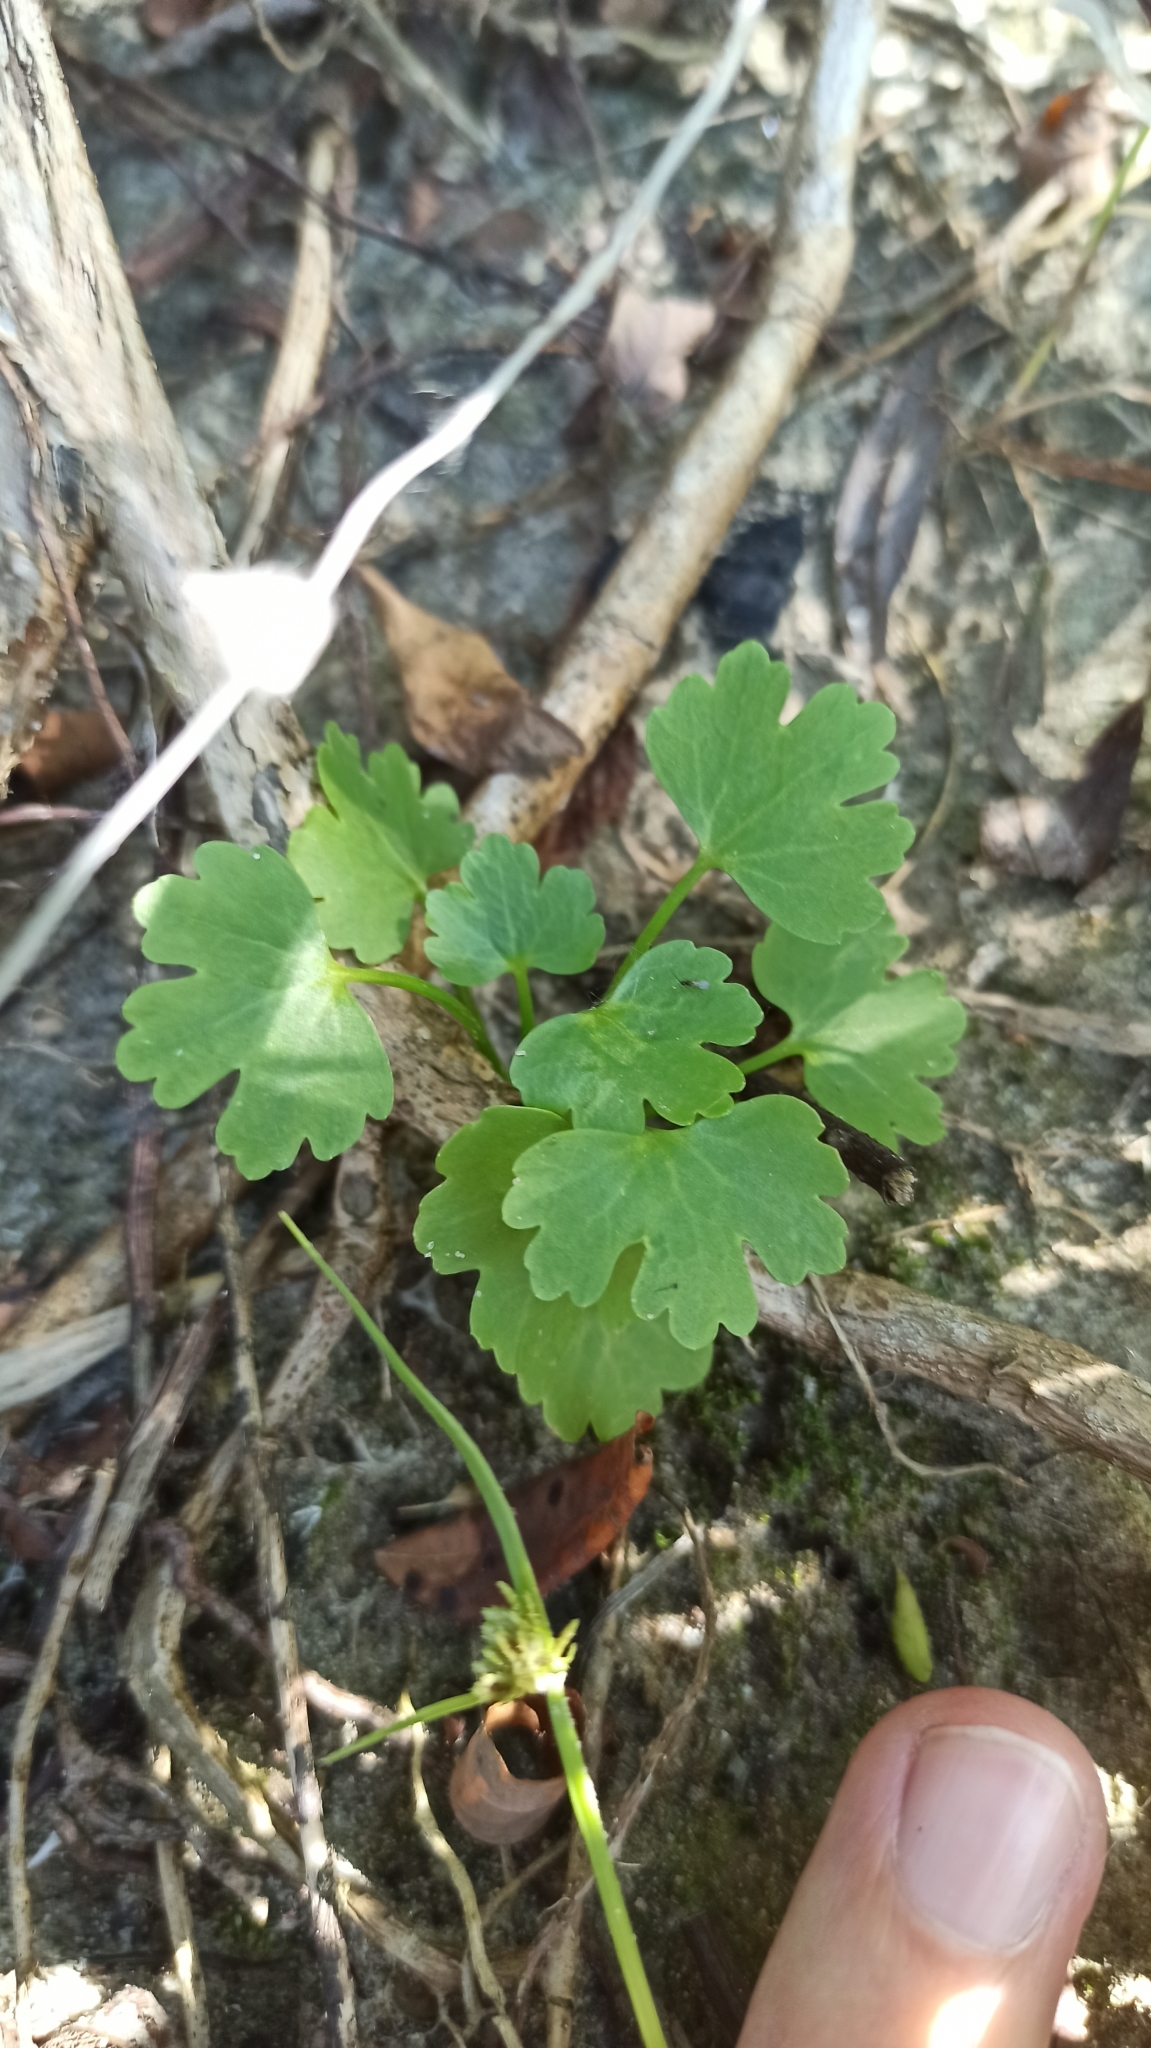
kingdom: Plantae
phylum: Tracheophyta
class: Magnoliopsida
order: Ranunculales
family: Ranunculaceae
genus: Ranunculus
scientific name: Ranunculus sceleratus
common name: Celery-leaved buttercup
